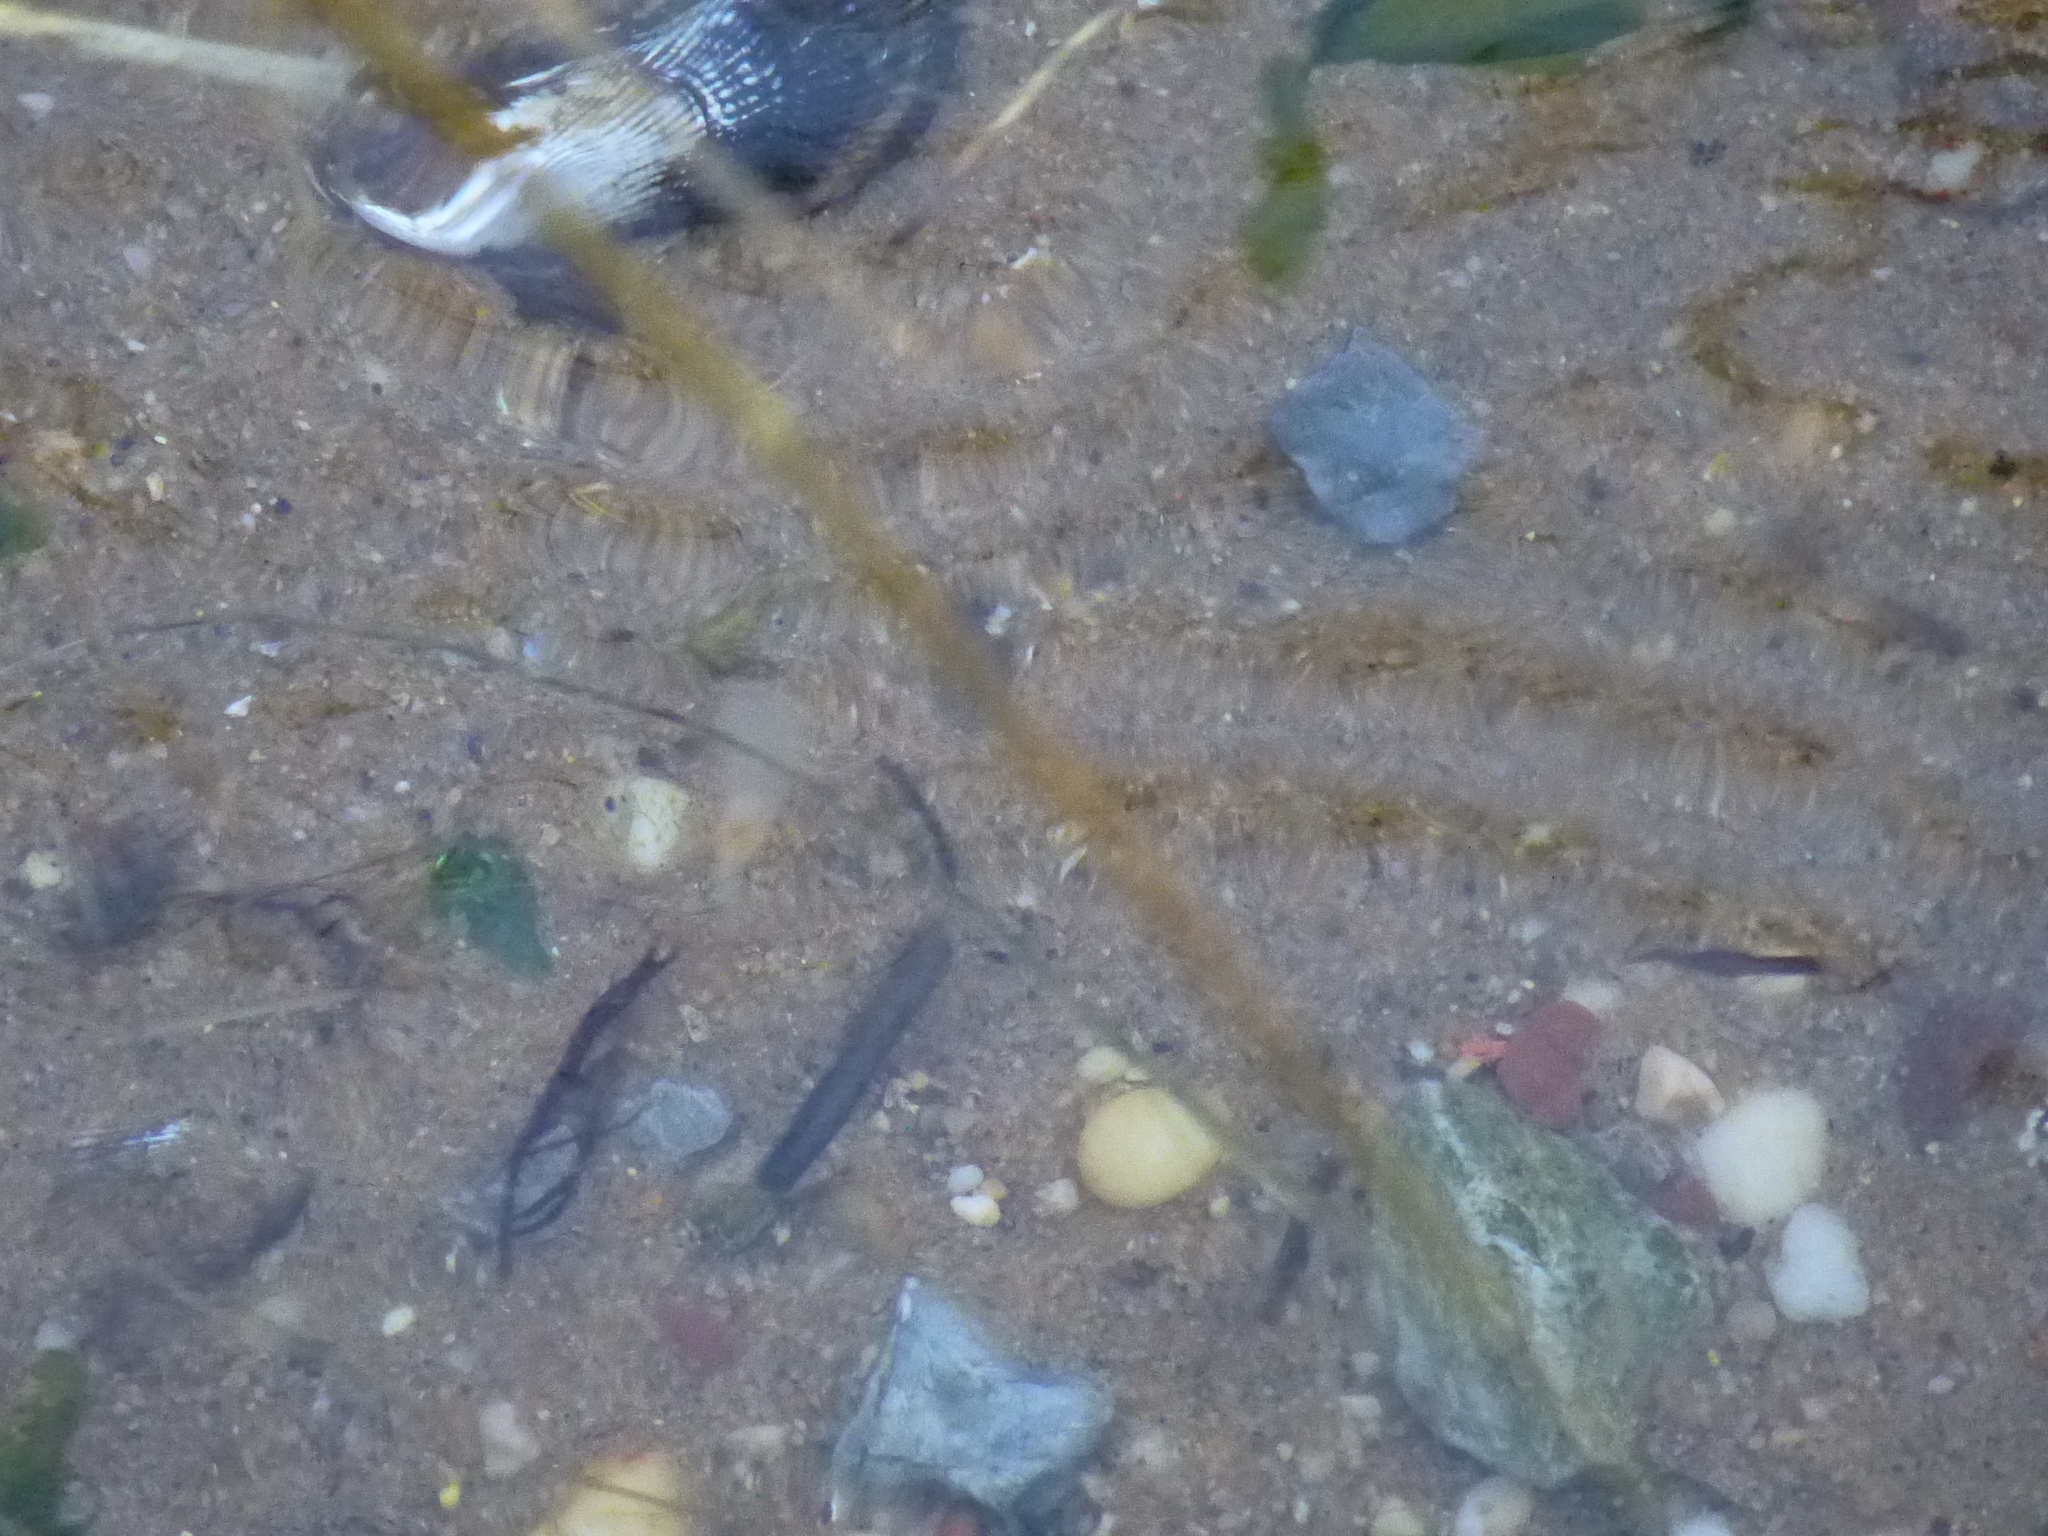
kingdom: Animalia
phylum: Mollusca
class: Bivalvia
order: Mytilida
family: Mytilidae
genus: Geukensia
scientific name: Geukensia demissa
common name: Ribbed mussel
